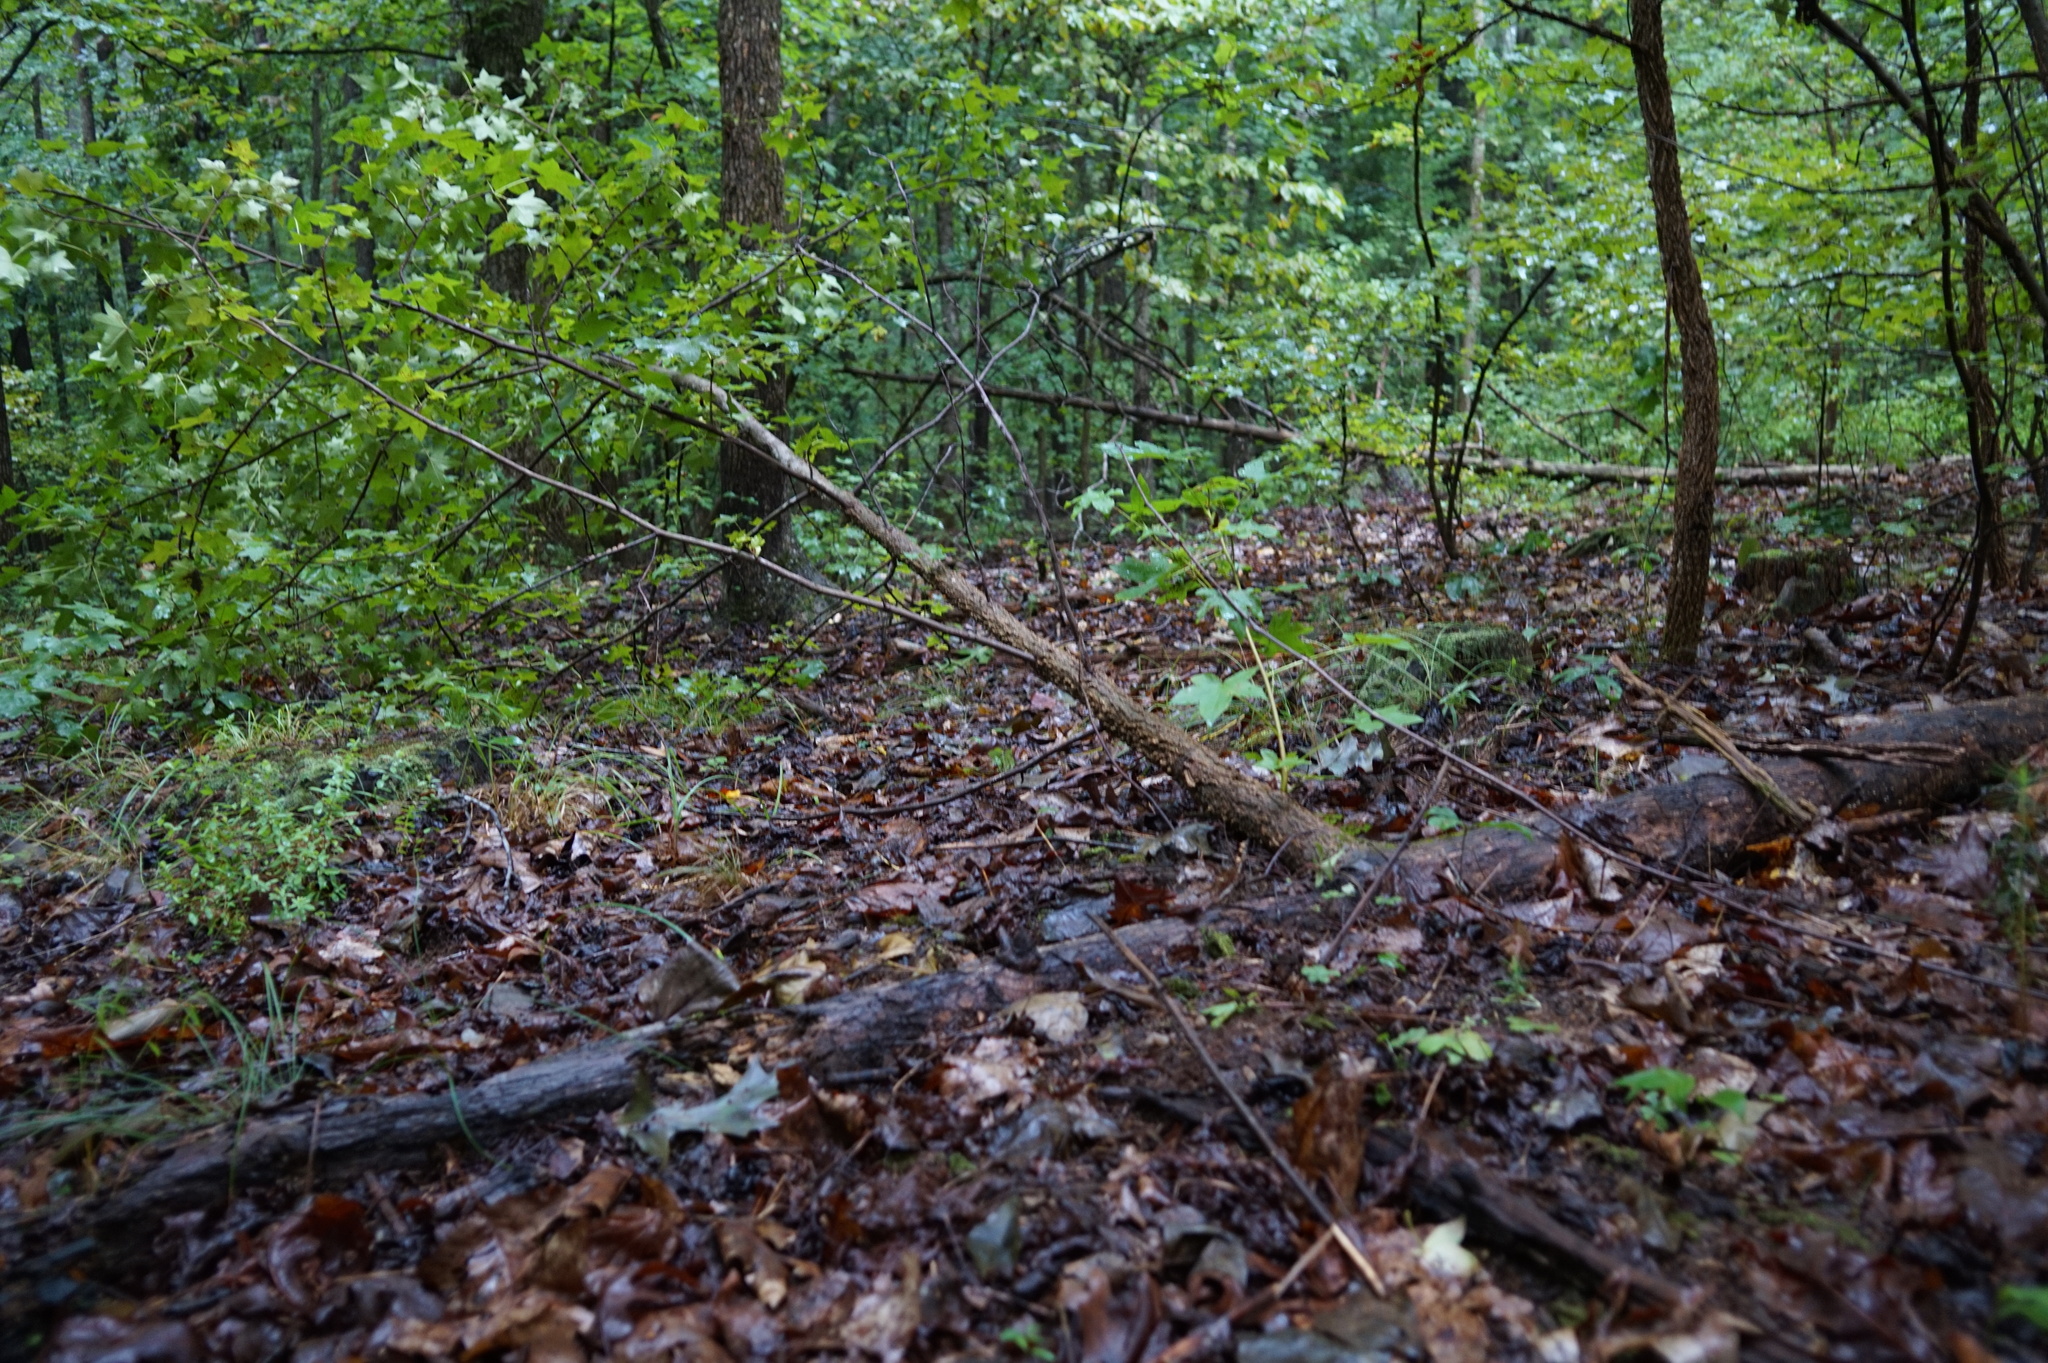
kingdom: Plantae
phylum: Tracheophyta
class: Magnoliopsida
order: Saxifragales
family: Altingiaceae
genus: Liquidambar
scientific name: Liquidambar styraciflua
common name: Sweet gum
